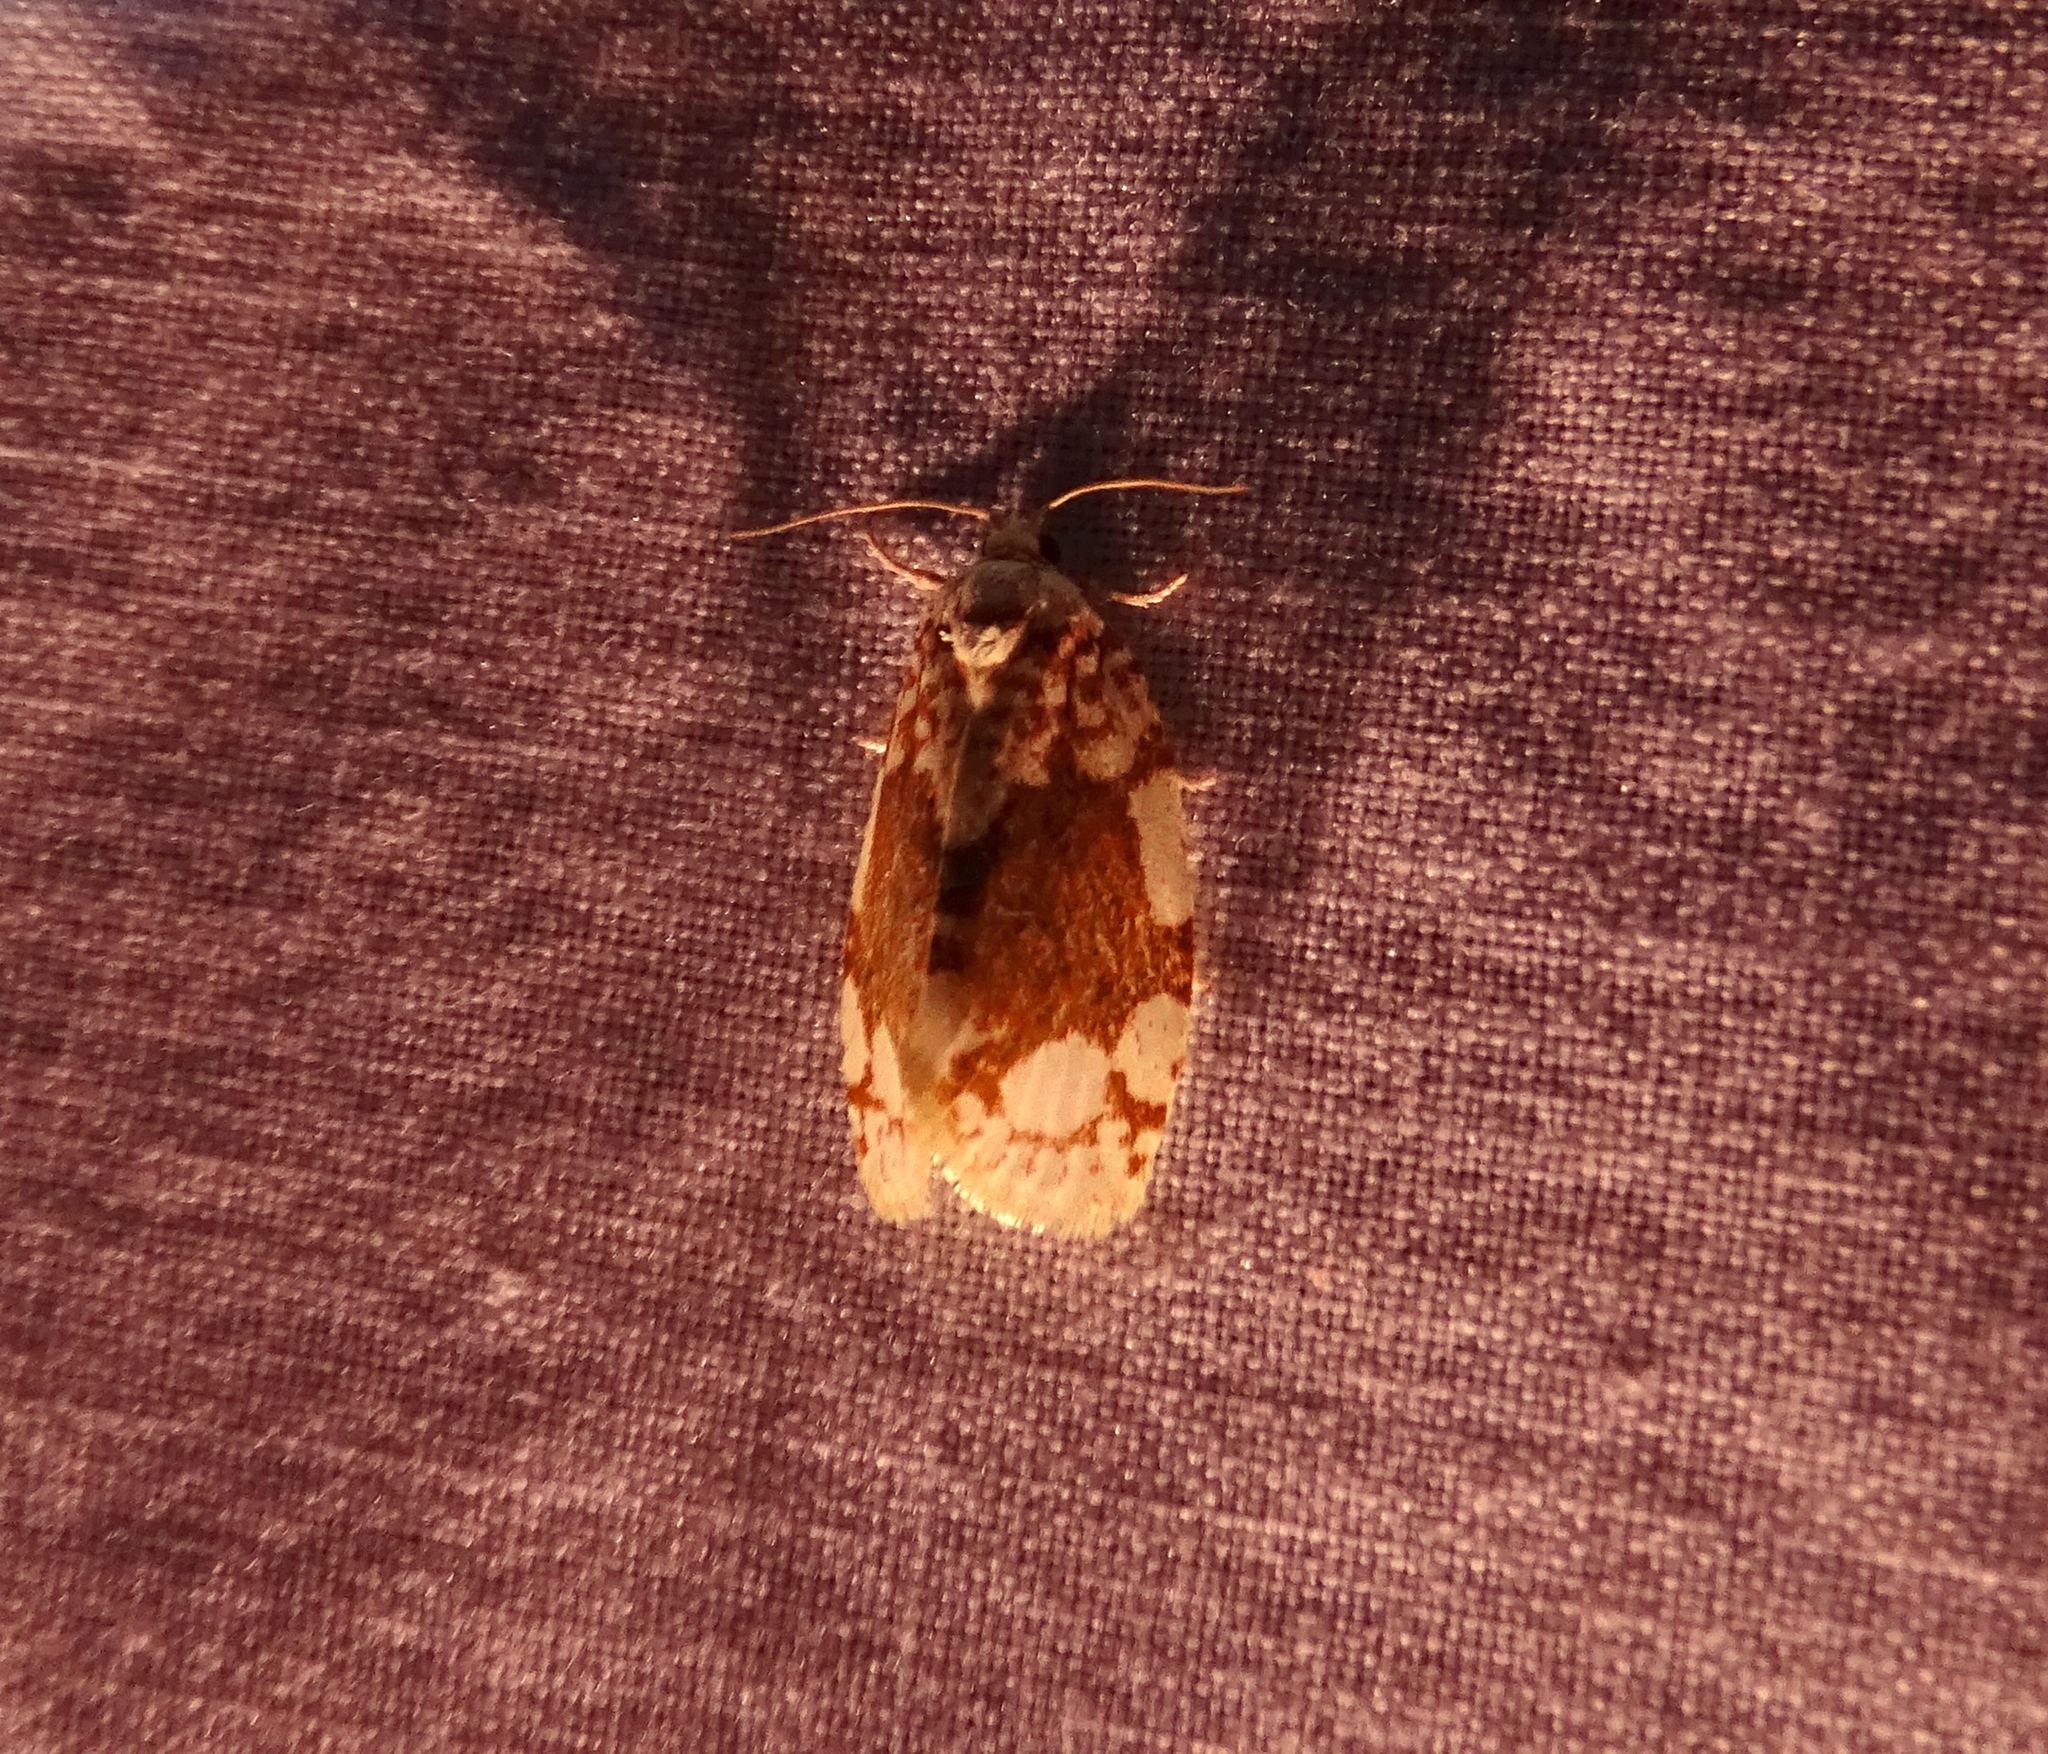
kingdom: Animalia
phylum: Arthropoda
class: Insecta
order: Lepidoptera
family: Tortricidae
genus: Argyrotaenia
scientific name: Argyrotaenia alisellana
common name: White-spotted leafroller moth
